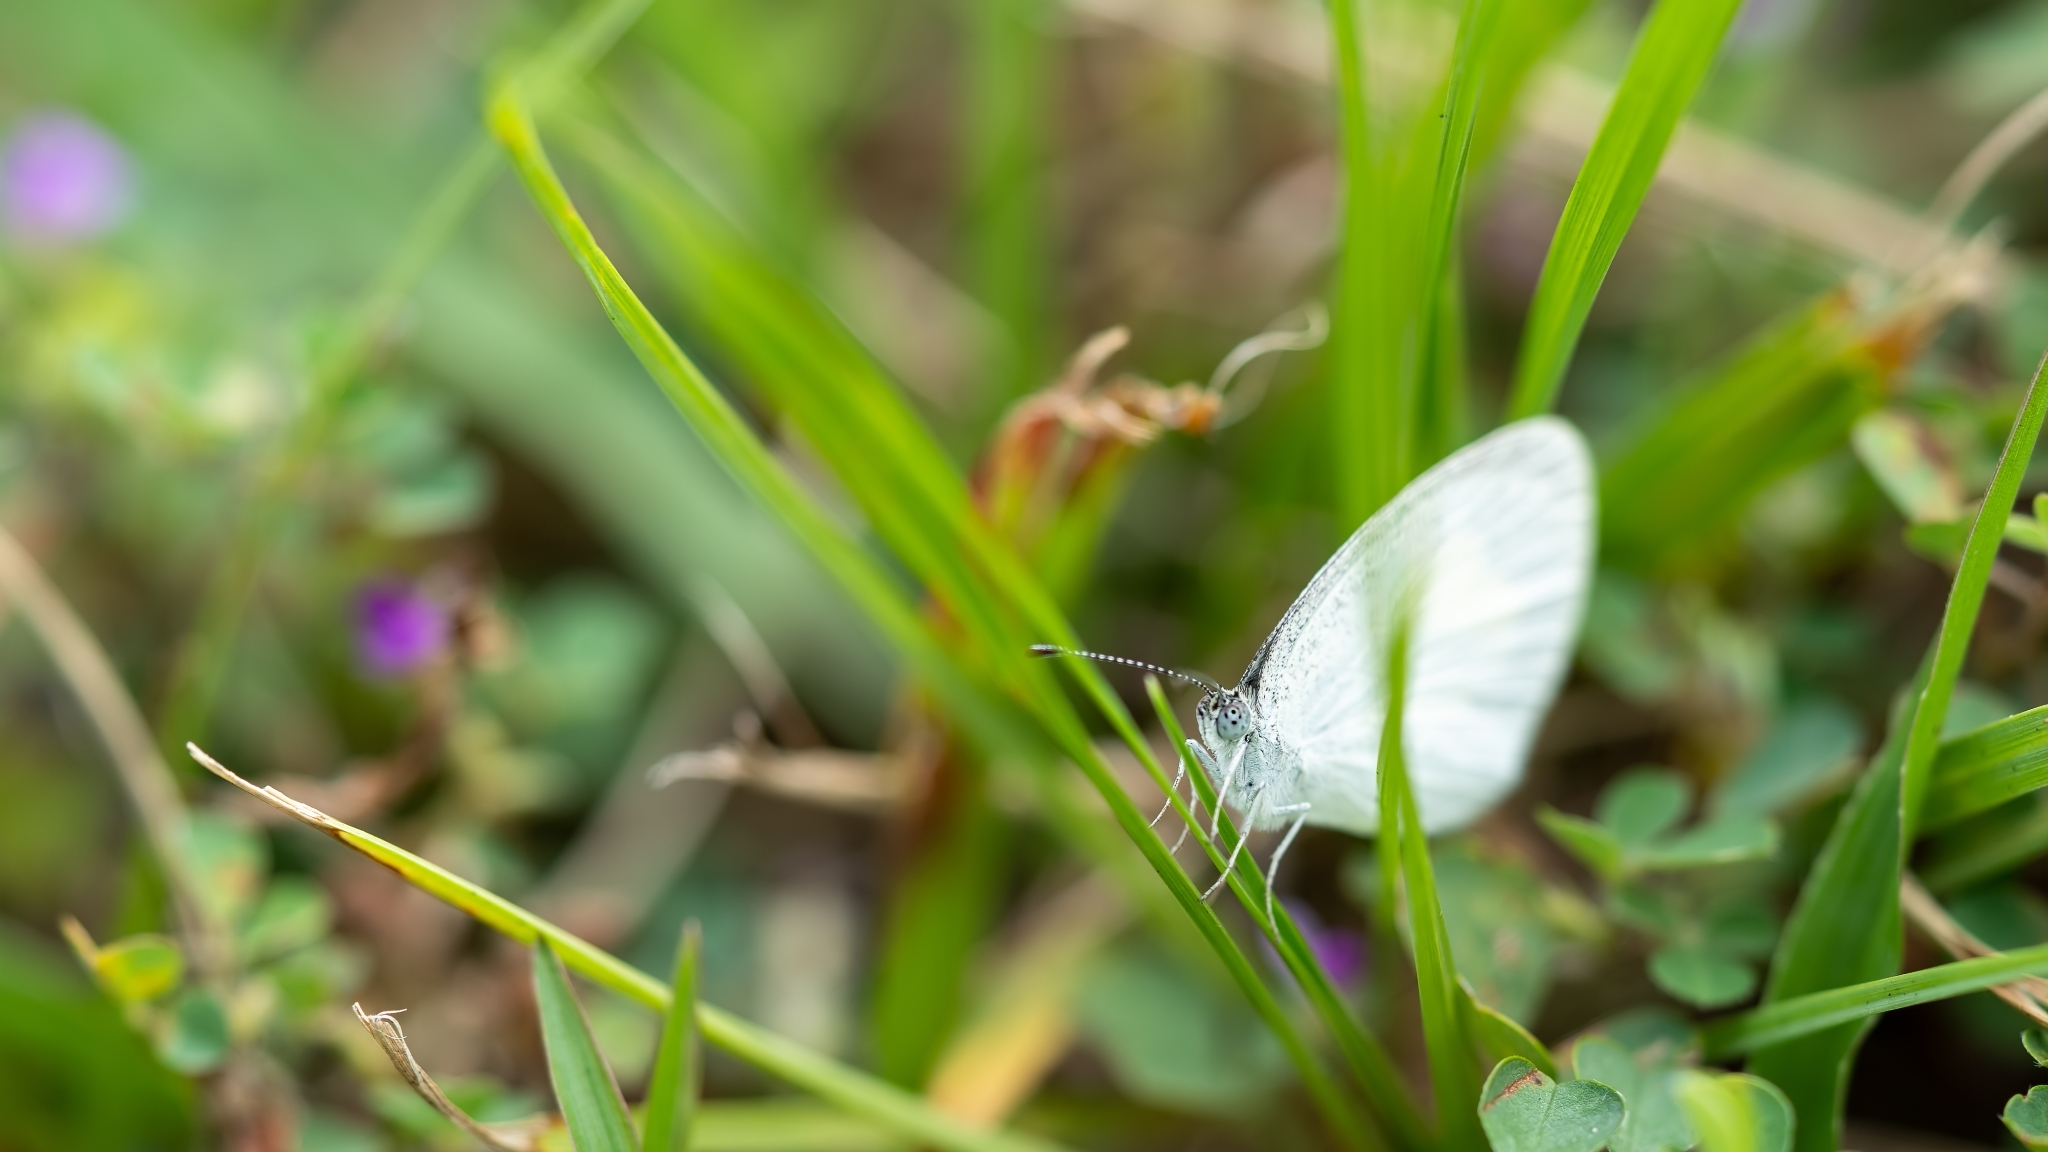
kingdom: Animalia
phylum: Arthropoda
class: Insecta
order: Lepidoptera
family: Pieridae
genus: Eurema
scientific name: Eurema daira
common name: Barred sulphur
